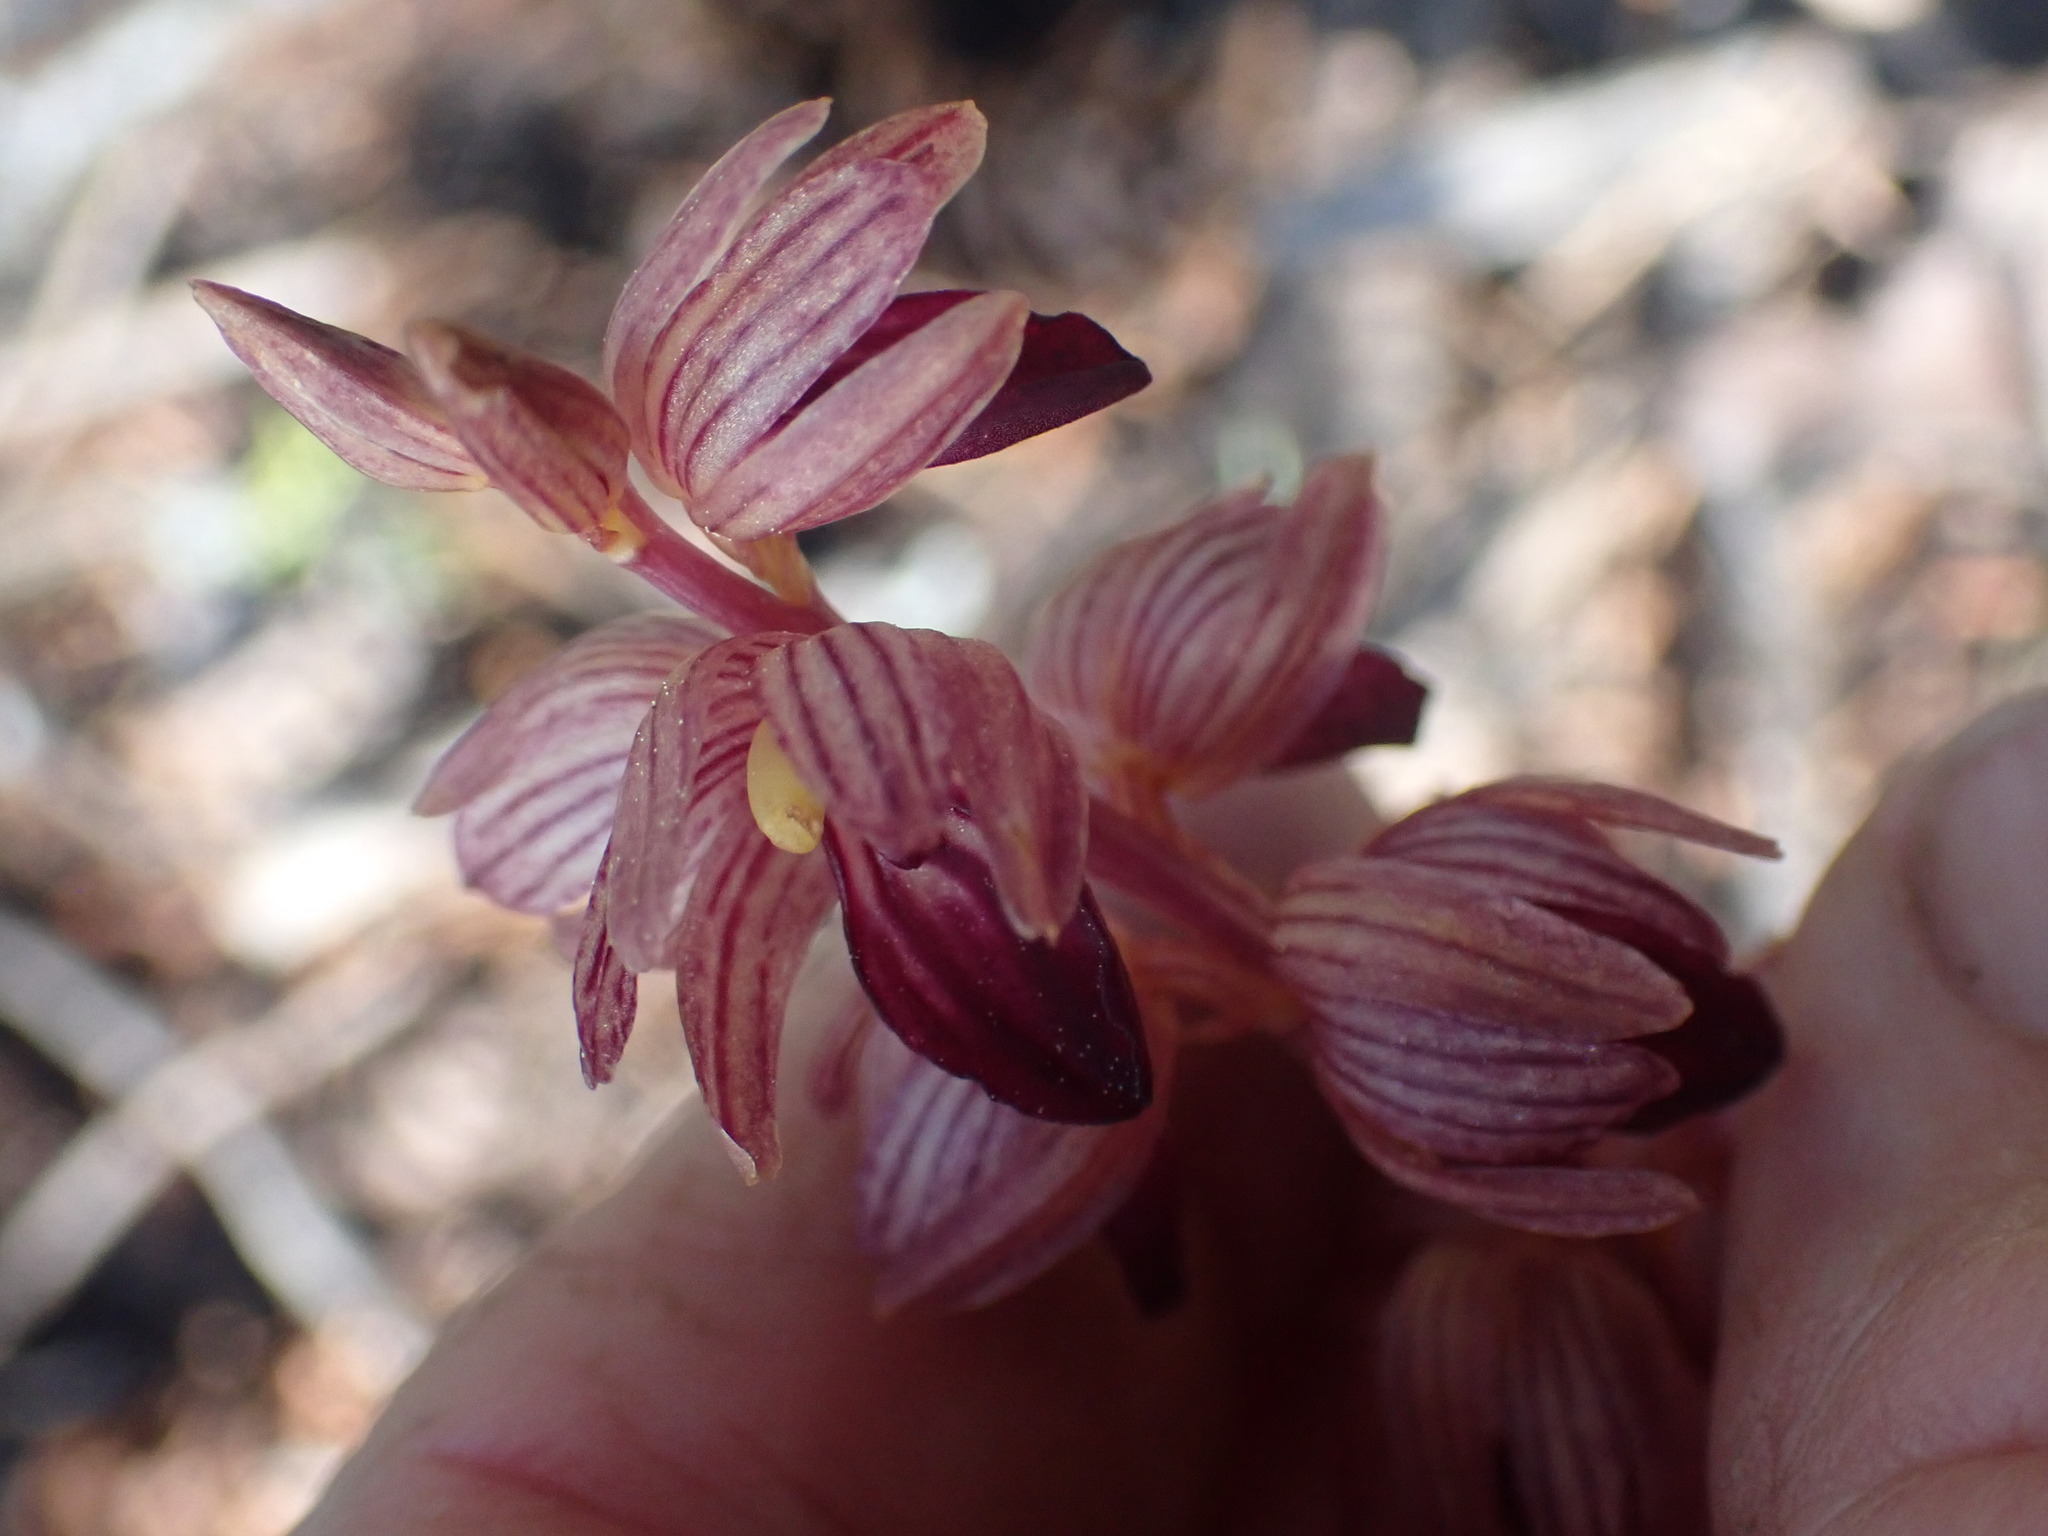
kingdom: Plantae
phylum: Tracheophyta
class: Liliopsida
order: Asparagales
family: Orchidaceae
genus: Corallorhiza
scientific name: Corallorhiza striata
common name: Hooded coralroot
